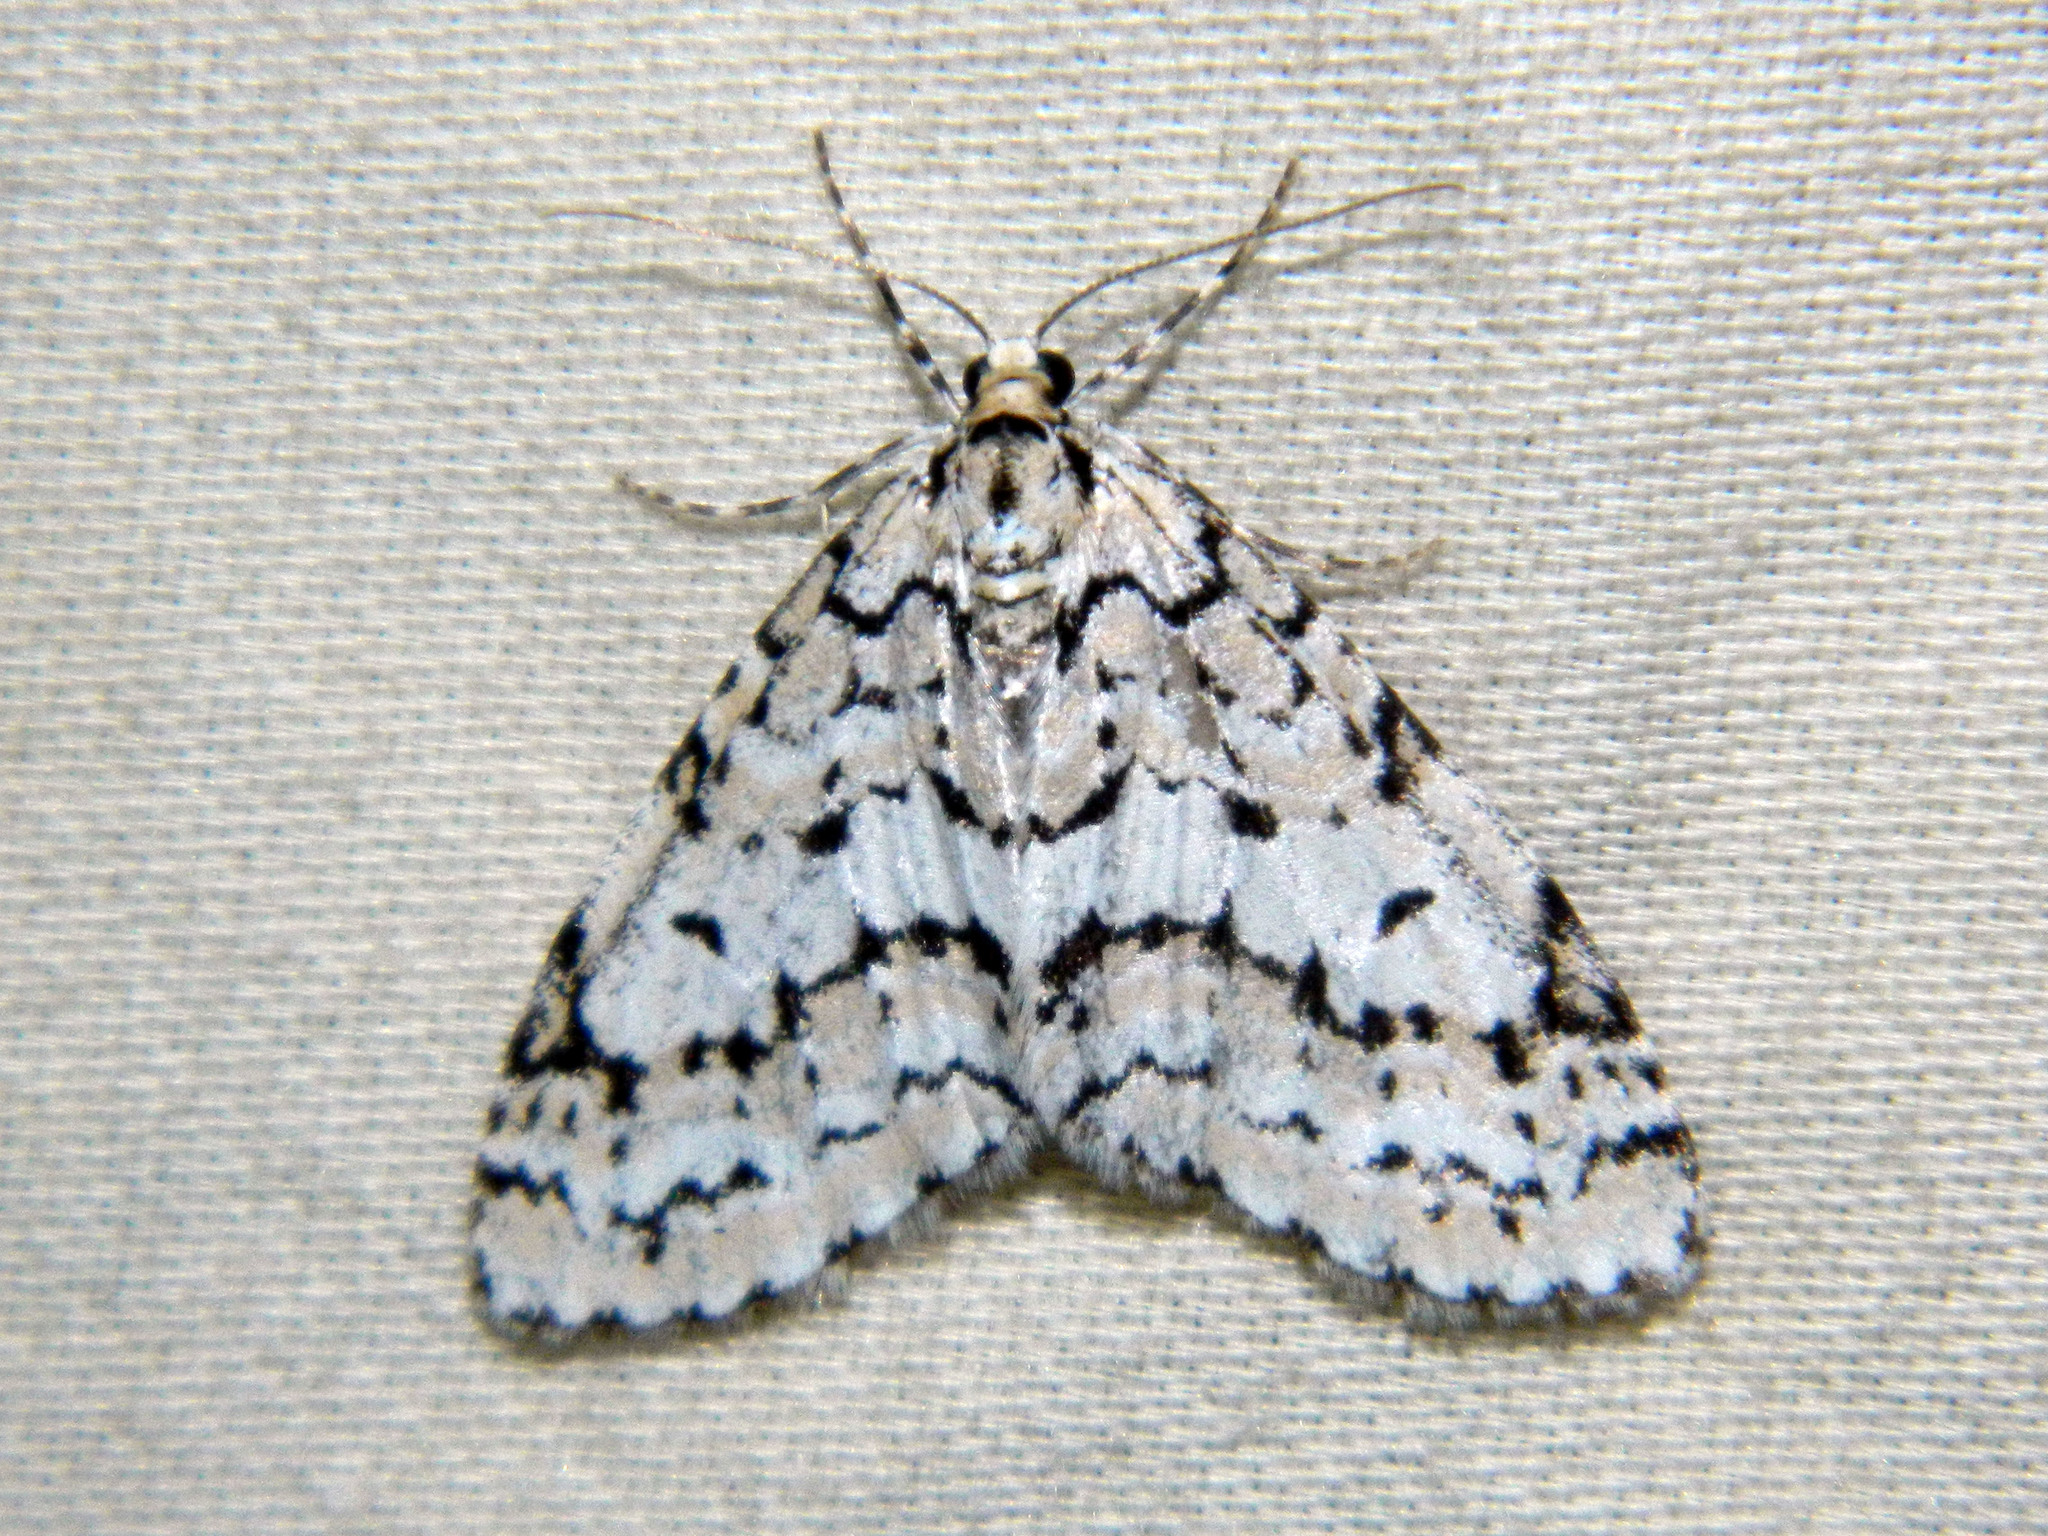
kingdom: Animalia
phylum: Arthropoda
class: Insecta
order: Lepidoptera
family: Geometridae
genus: Cladara
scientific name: Cladara atroliturata
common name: Scribbler
